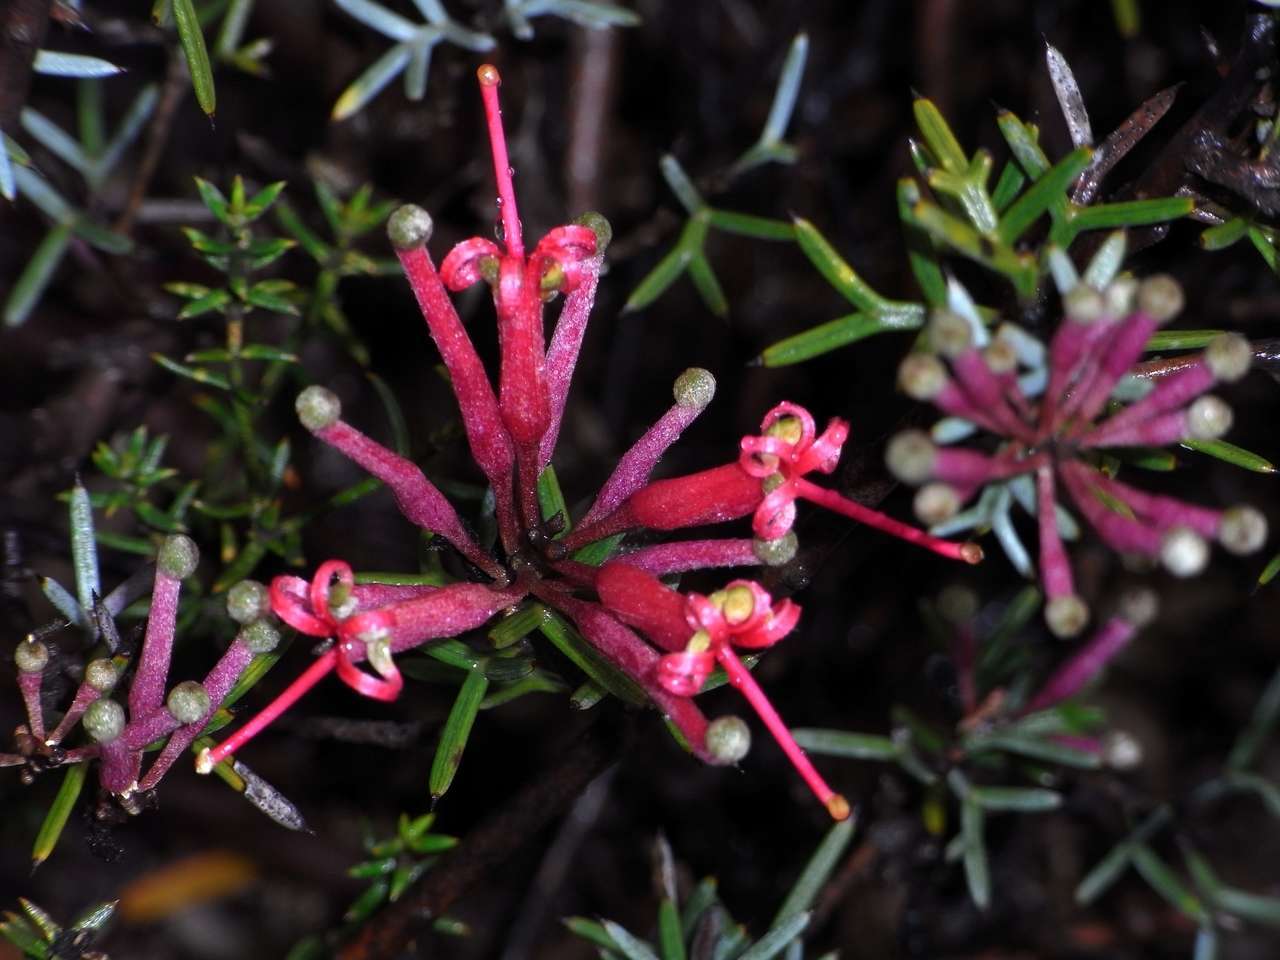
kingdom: Plantae
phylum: Tracheophyta
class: Magnoliopsida
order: Proteales
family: Proteaceae
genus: Grevillea
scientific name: Grevillea huegelii
